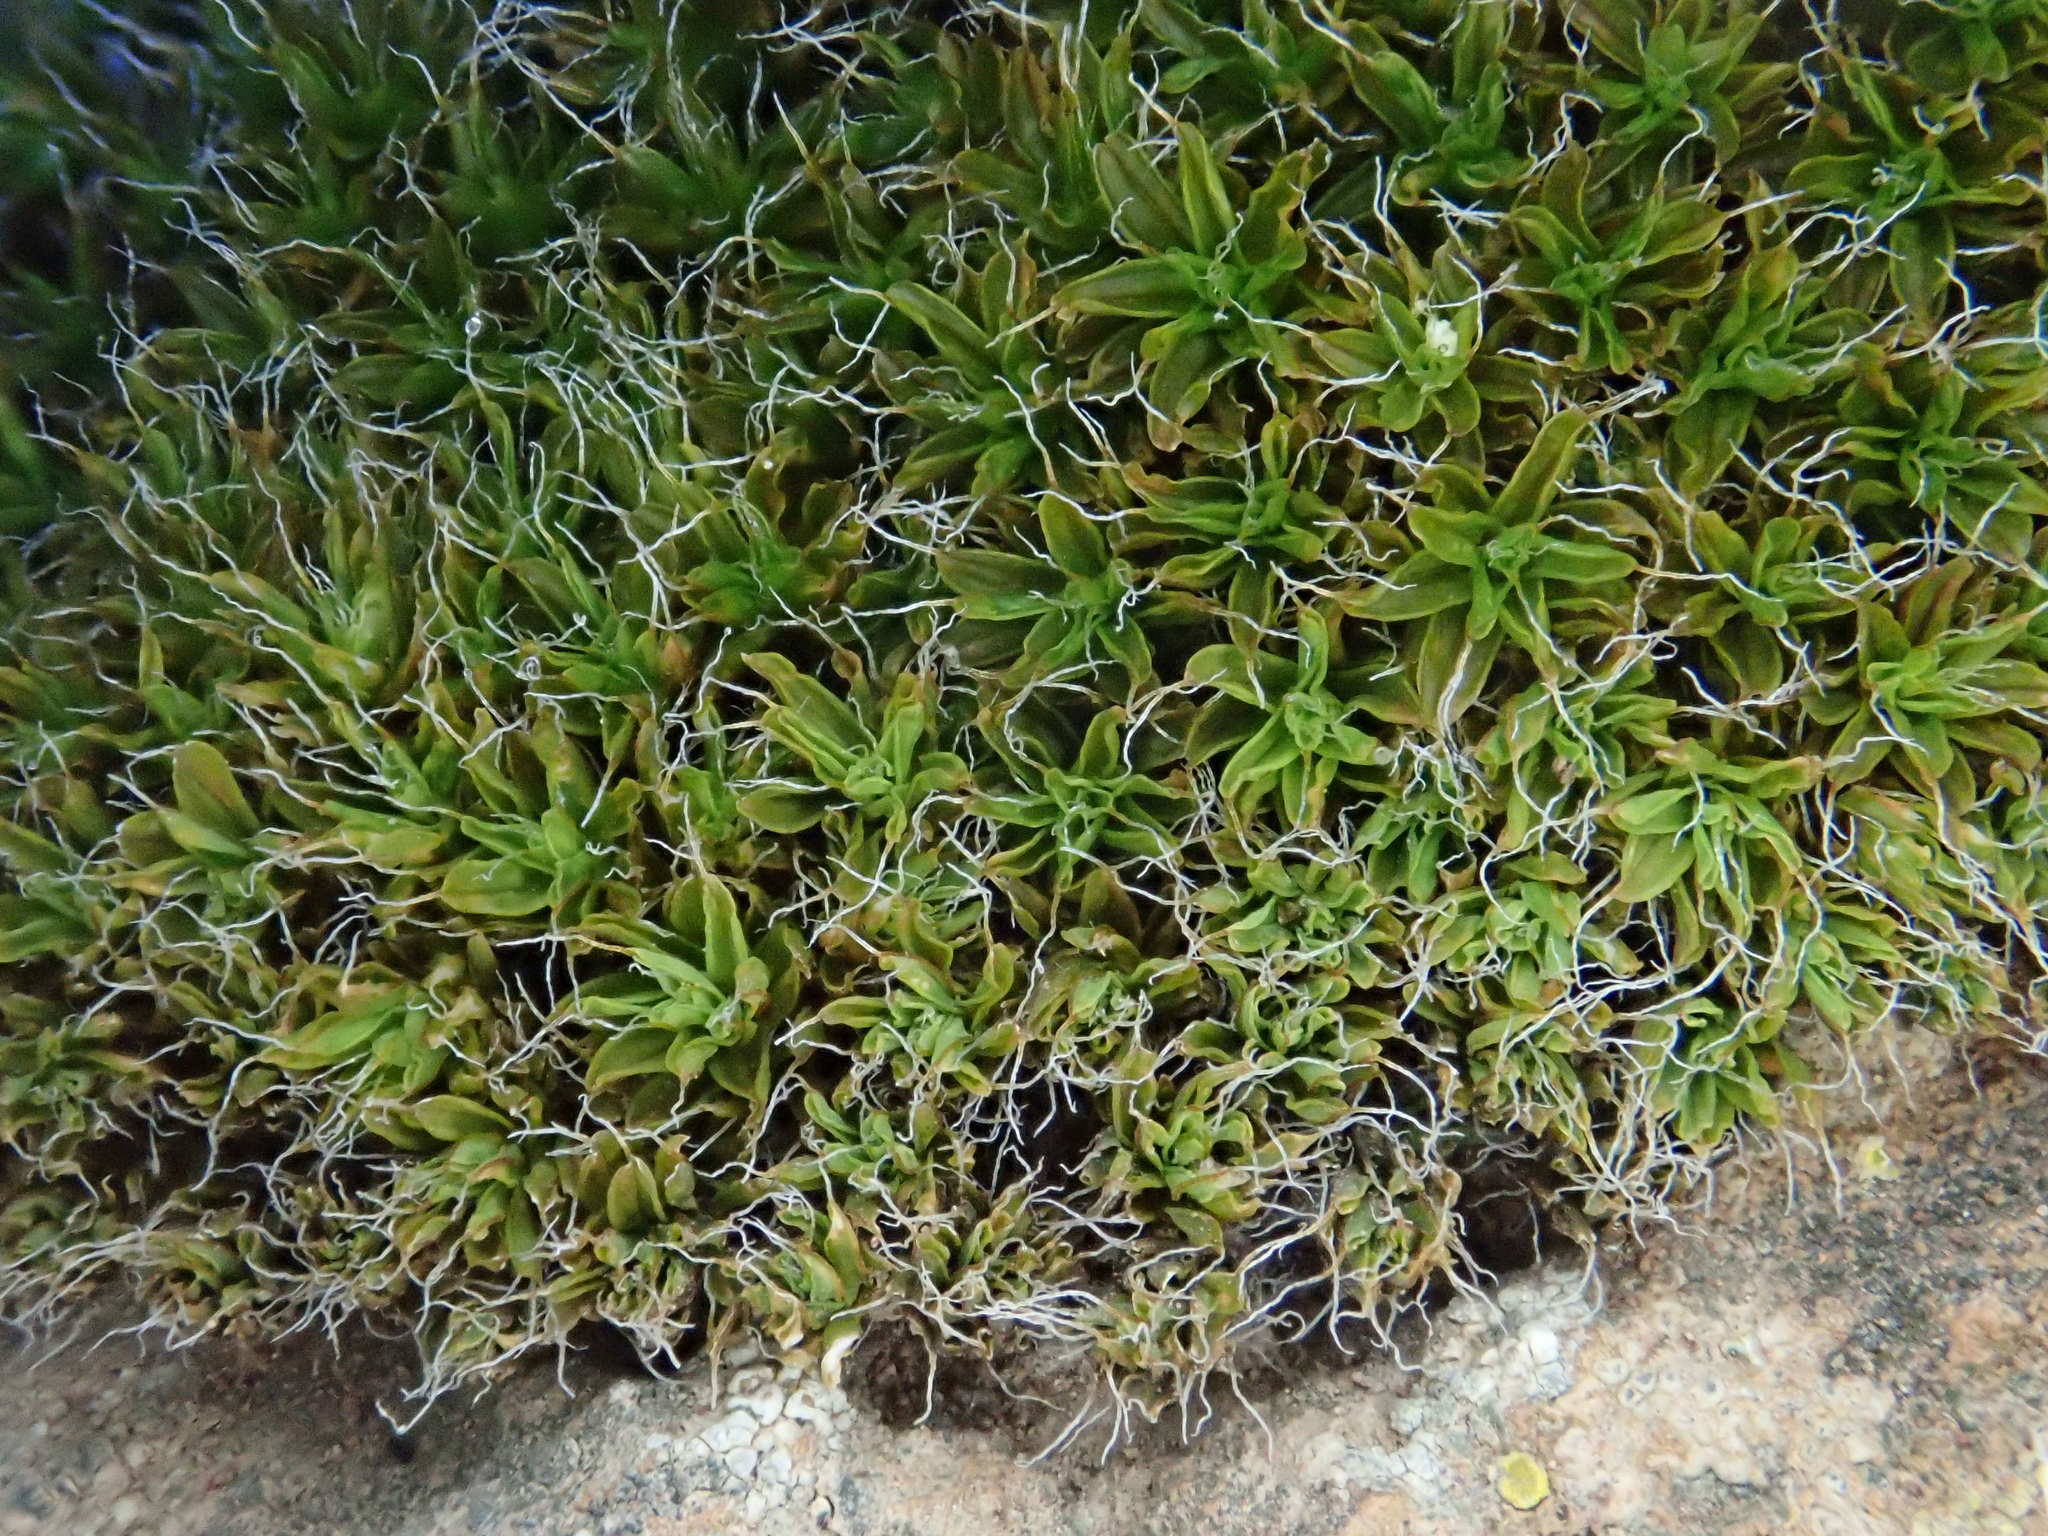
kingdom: Plantae
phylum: Bryophyta
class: Bryopsida
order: Pottiales
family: Pottiaceae
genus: Syntrichia
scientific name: Syntrichia ruralis
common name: Sidewalk screw moss
